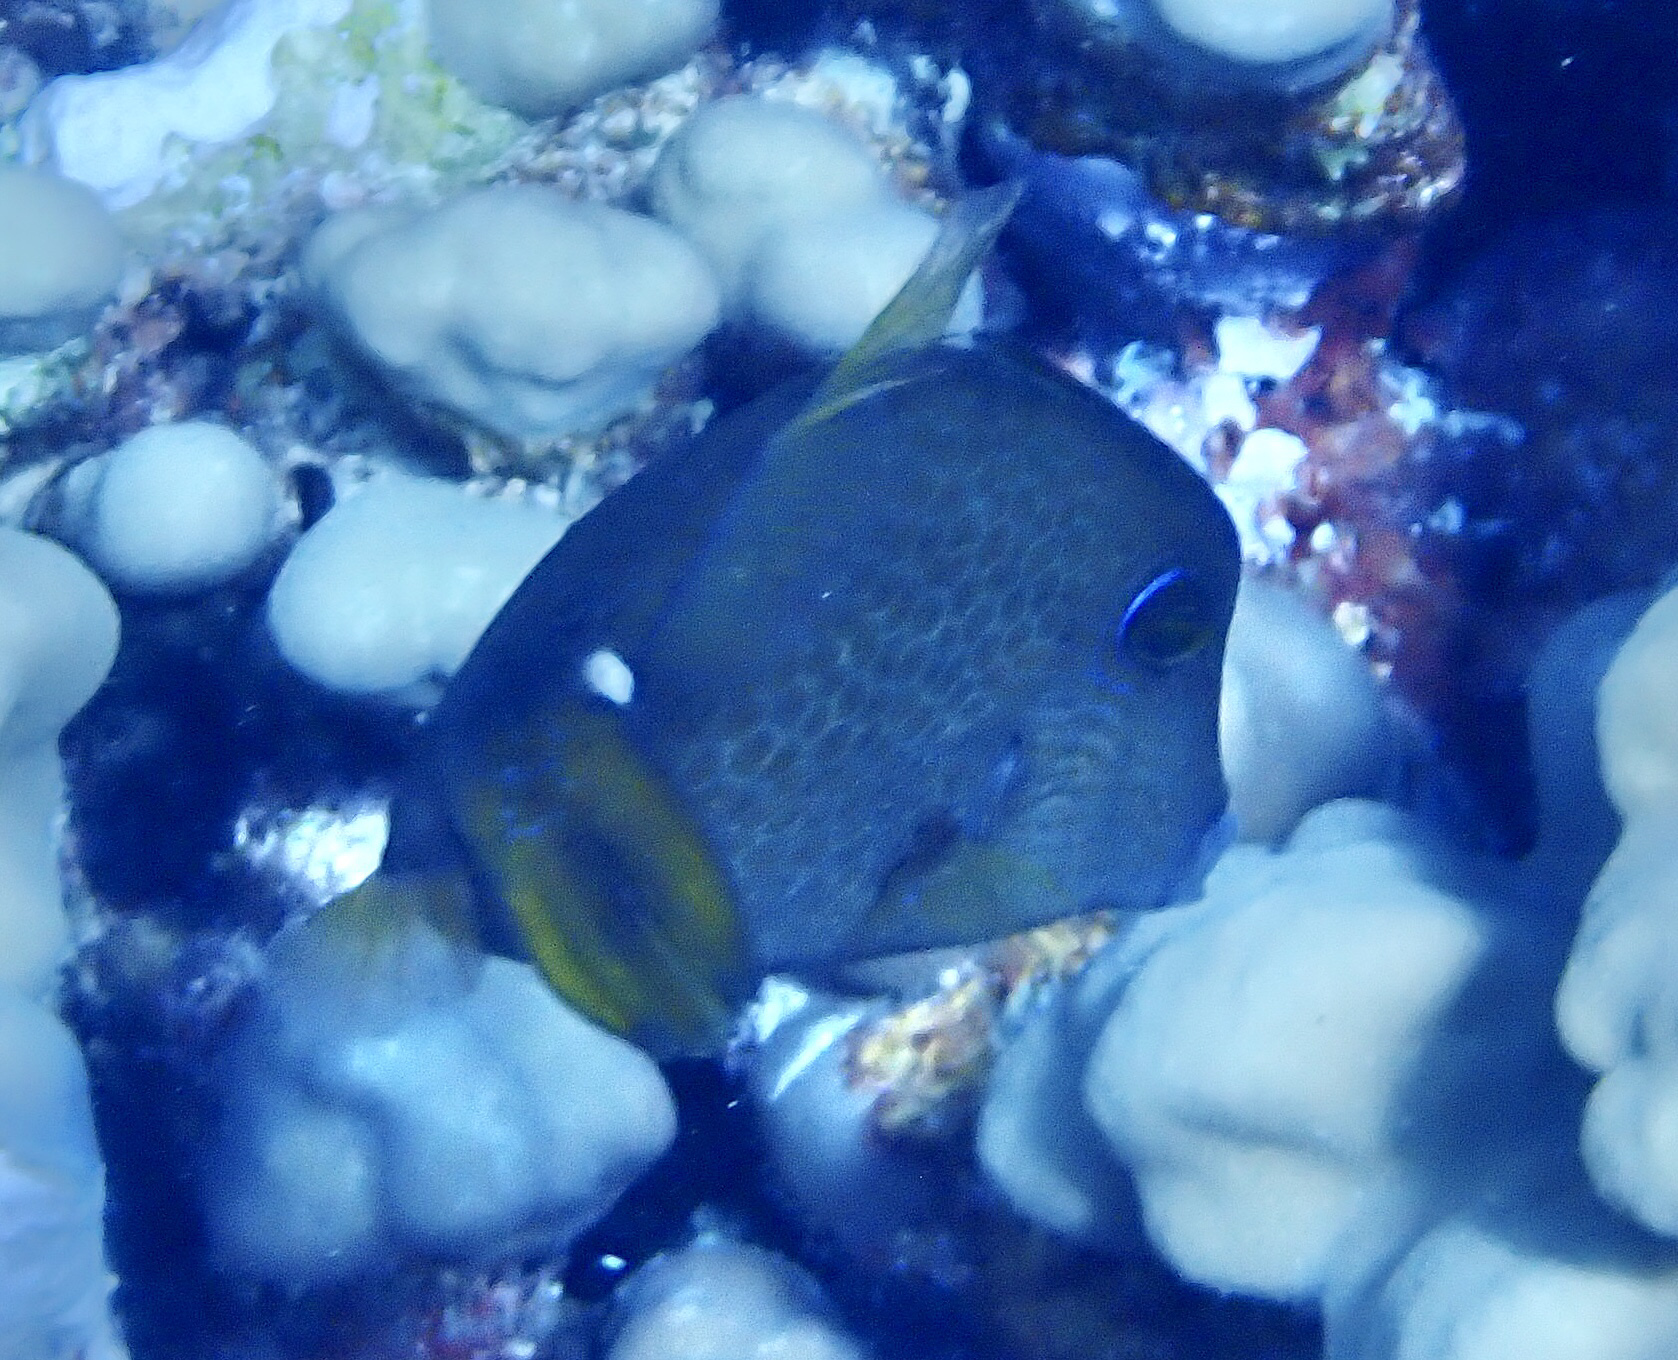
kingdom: Animalia
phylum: Chordata
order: Tetraodontiformes
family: Monacanthidae
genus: Cantherhines
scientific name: Cantherhines pardalis
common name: Honeycomb filefish
